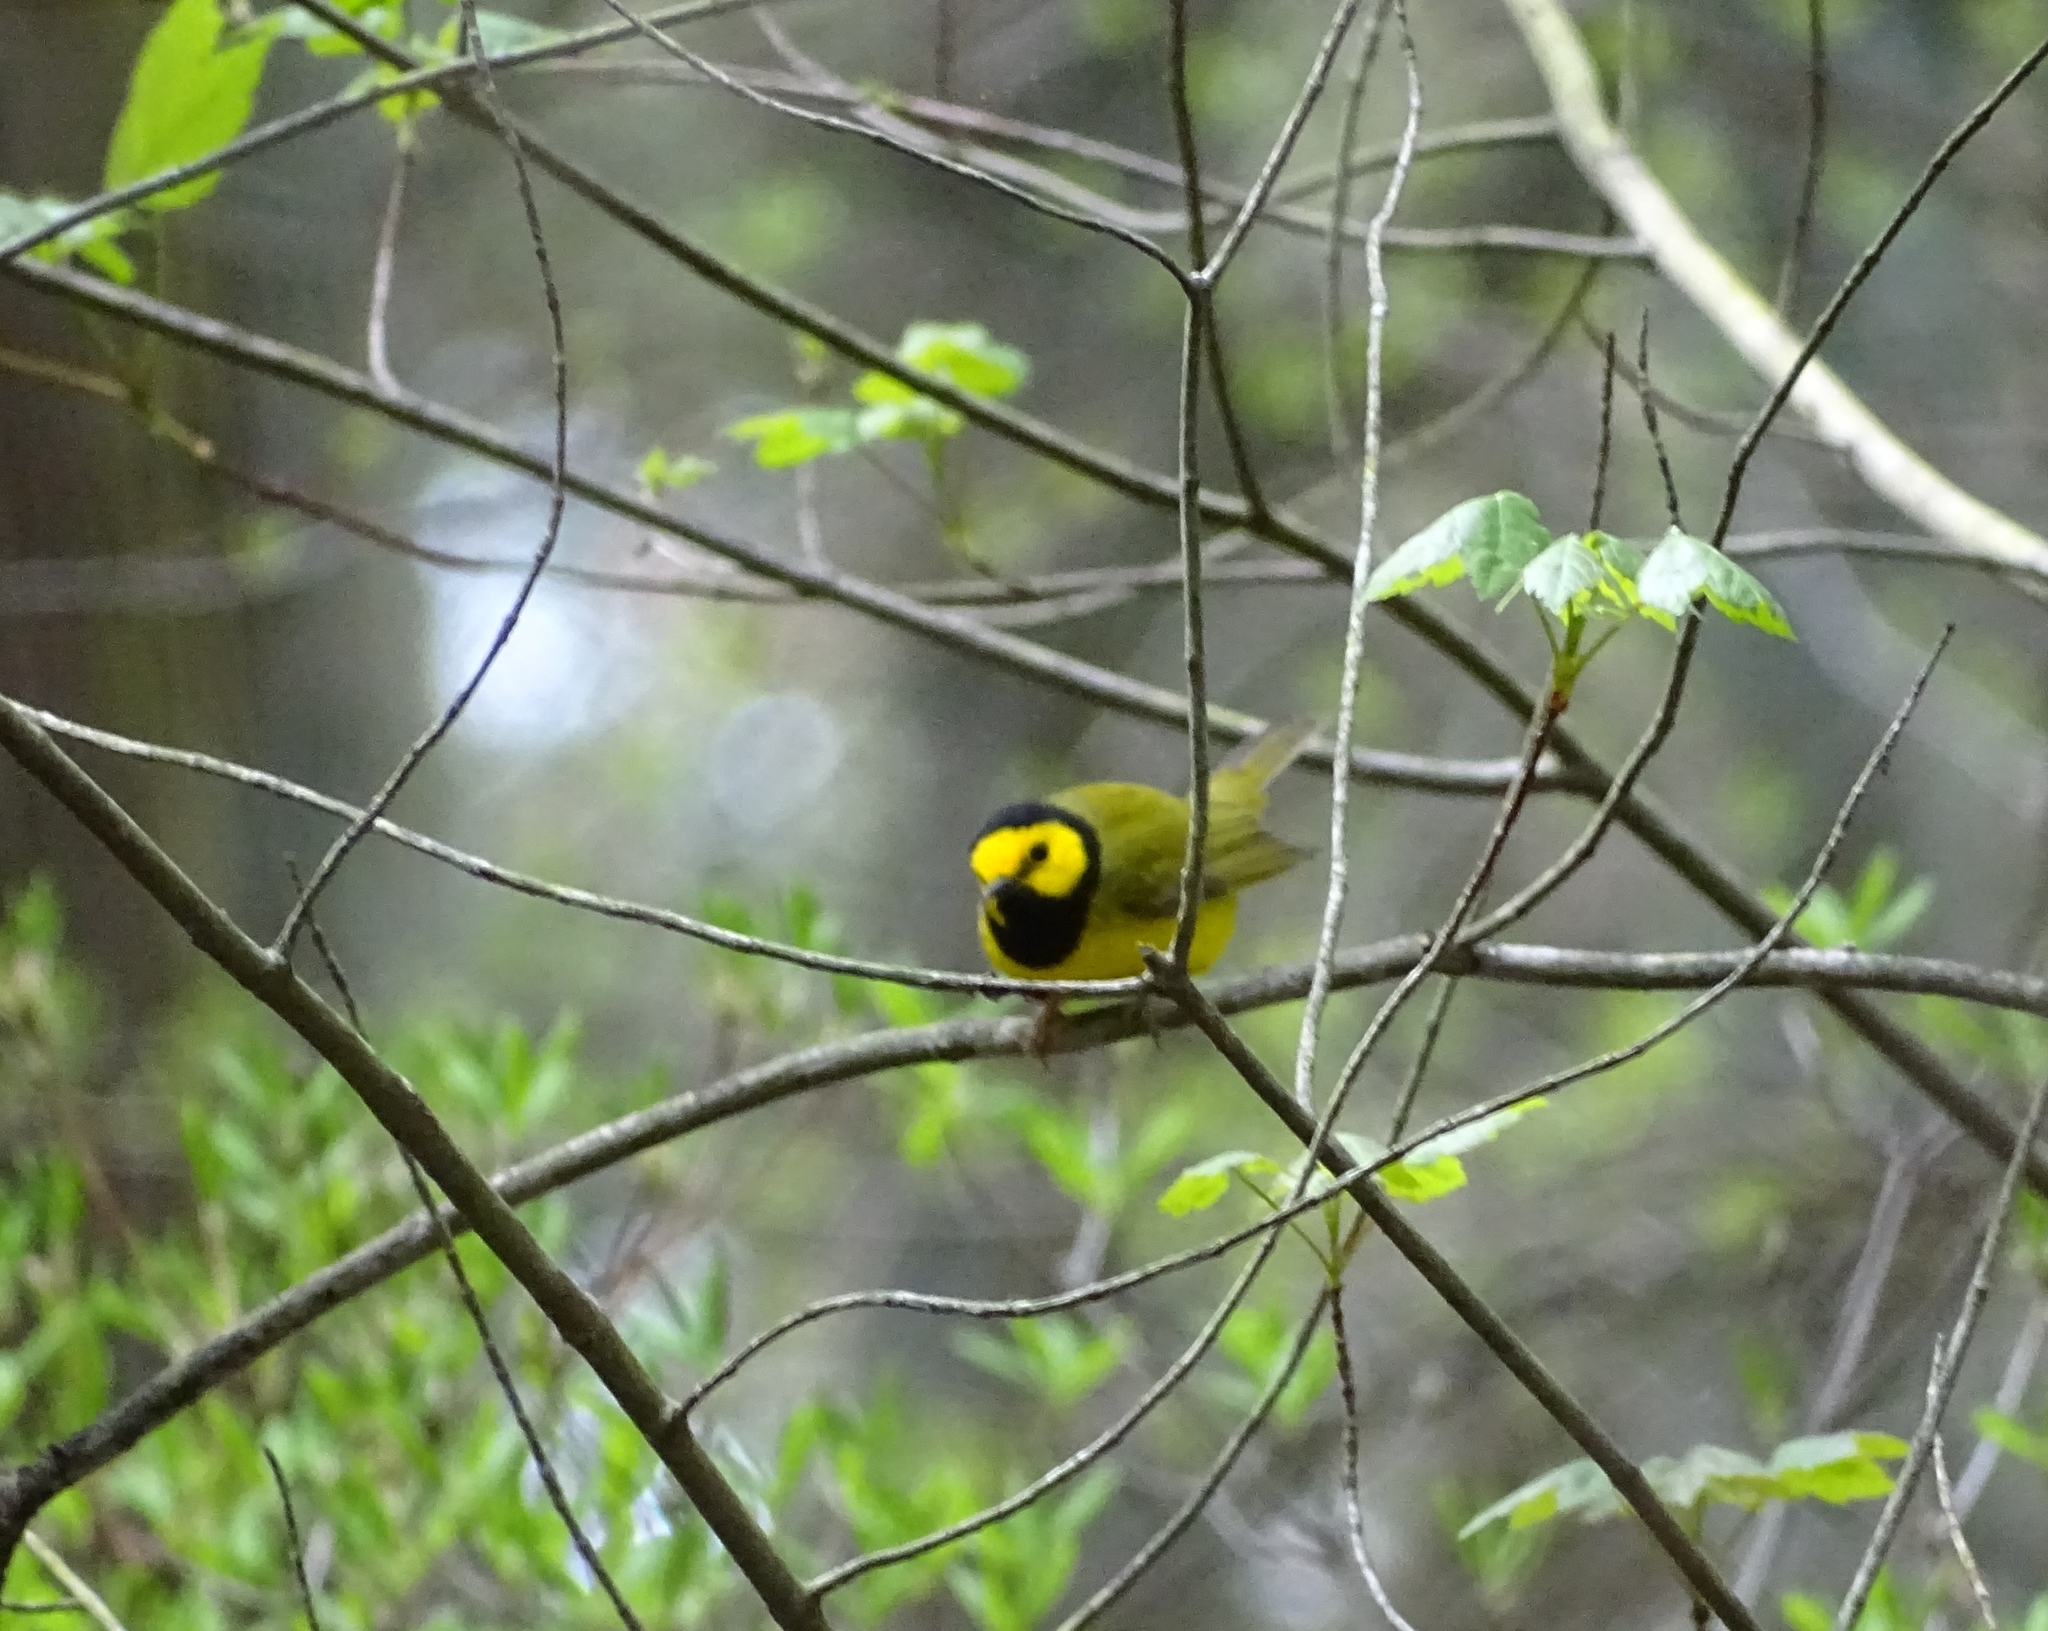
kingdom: Animalia
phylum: Chordata
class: Aves
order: Passeriformes
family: Parulidae
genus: Setophaga
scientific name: Setophaga citrina
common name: Hooded warbler
